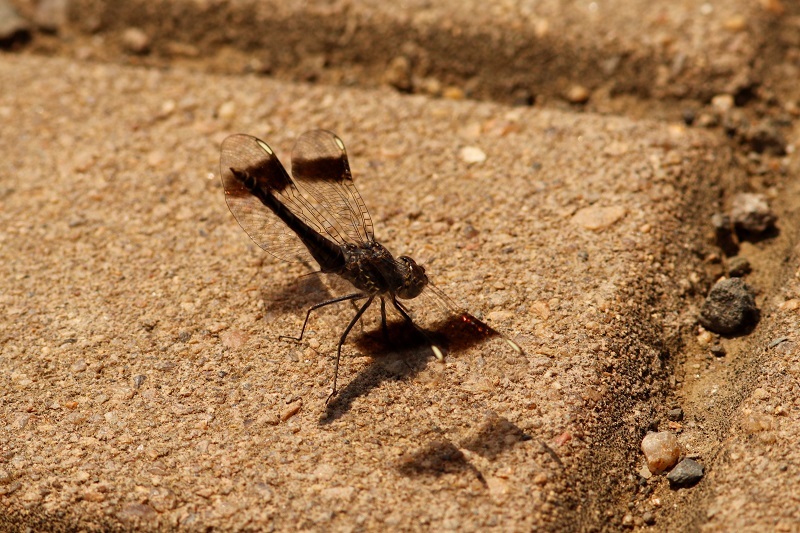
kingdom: Animalia
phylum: Arthropoda
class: Insecta
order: Odonata
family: Libellulidae
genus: Brachythemis
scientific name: Brachythemis leucosticta
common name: Banded groundling
